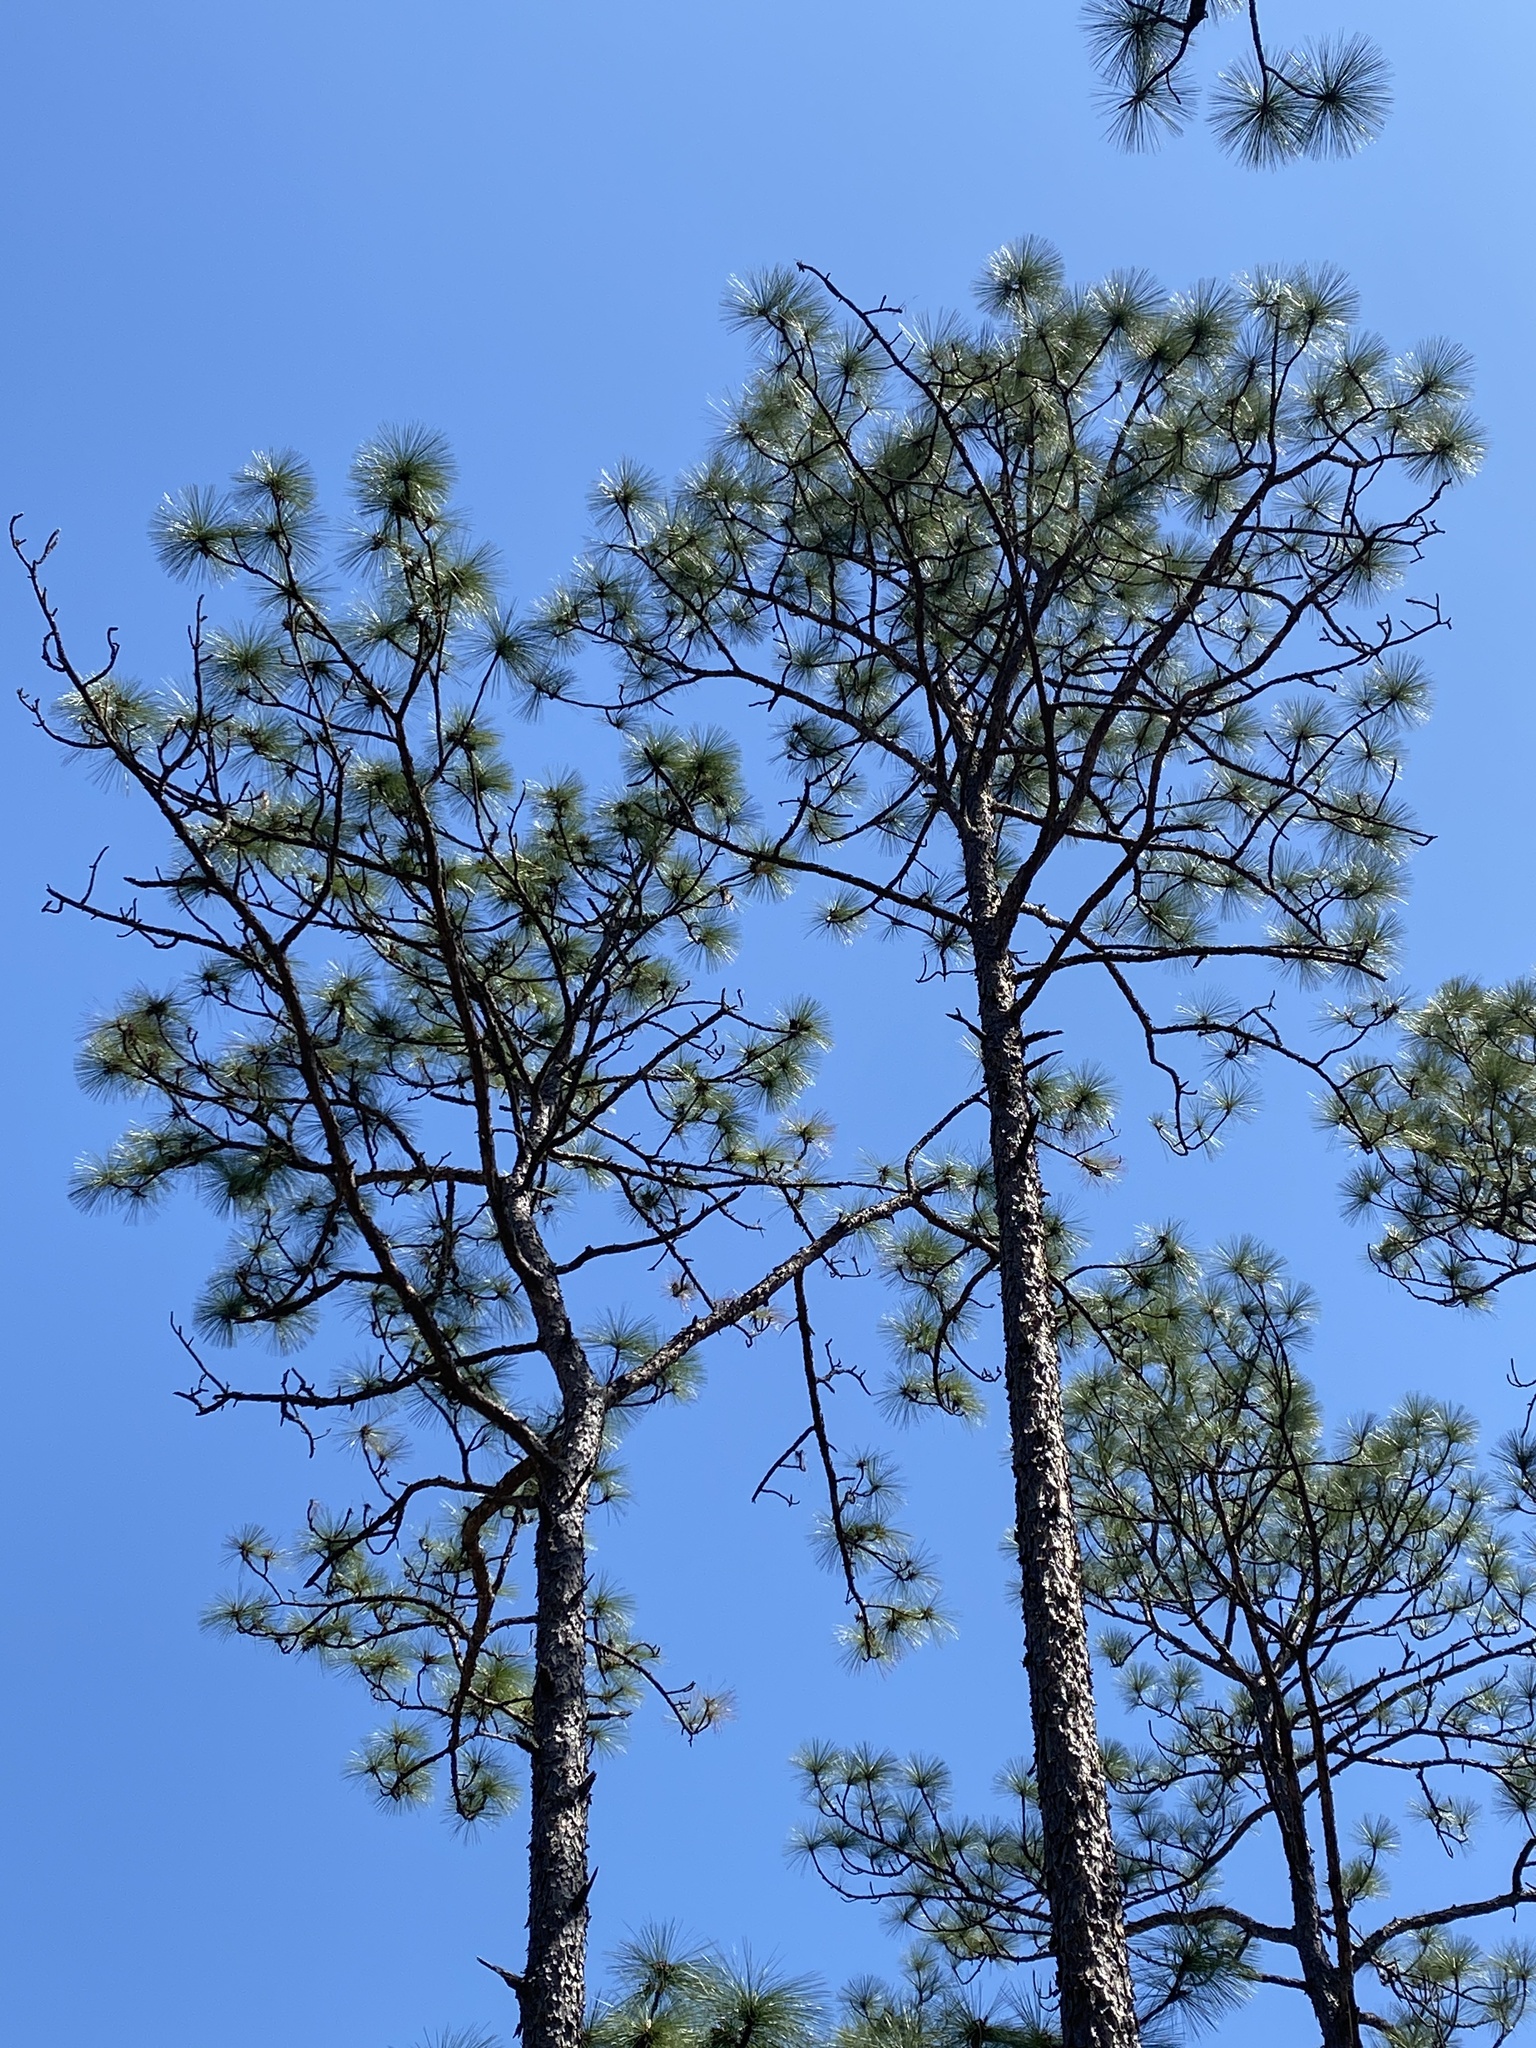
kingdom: Plantae
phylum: Tracheophyta
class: Pinopsida
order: Pinales
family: Pinaceae
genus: Pinus
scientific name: Pinus palustris
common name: Longleaf pine
